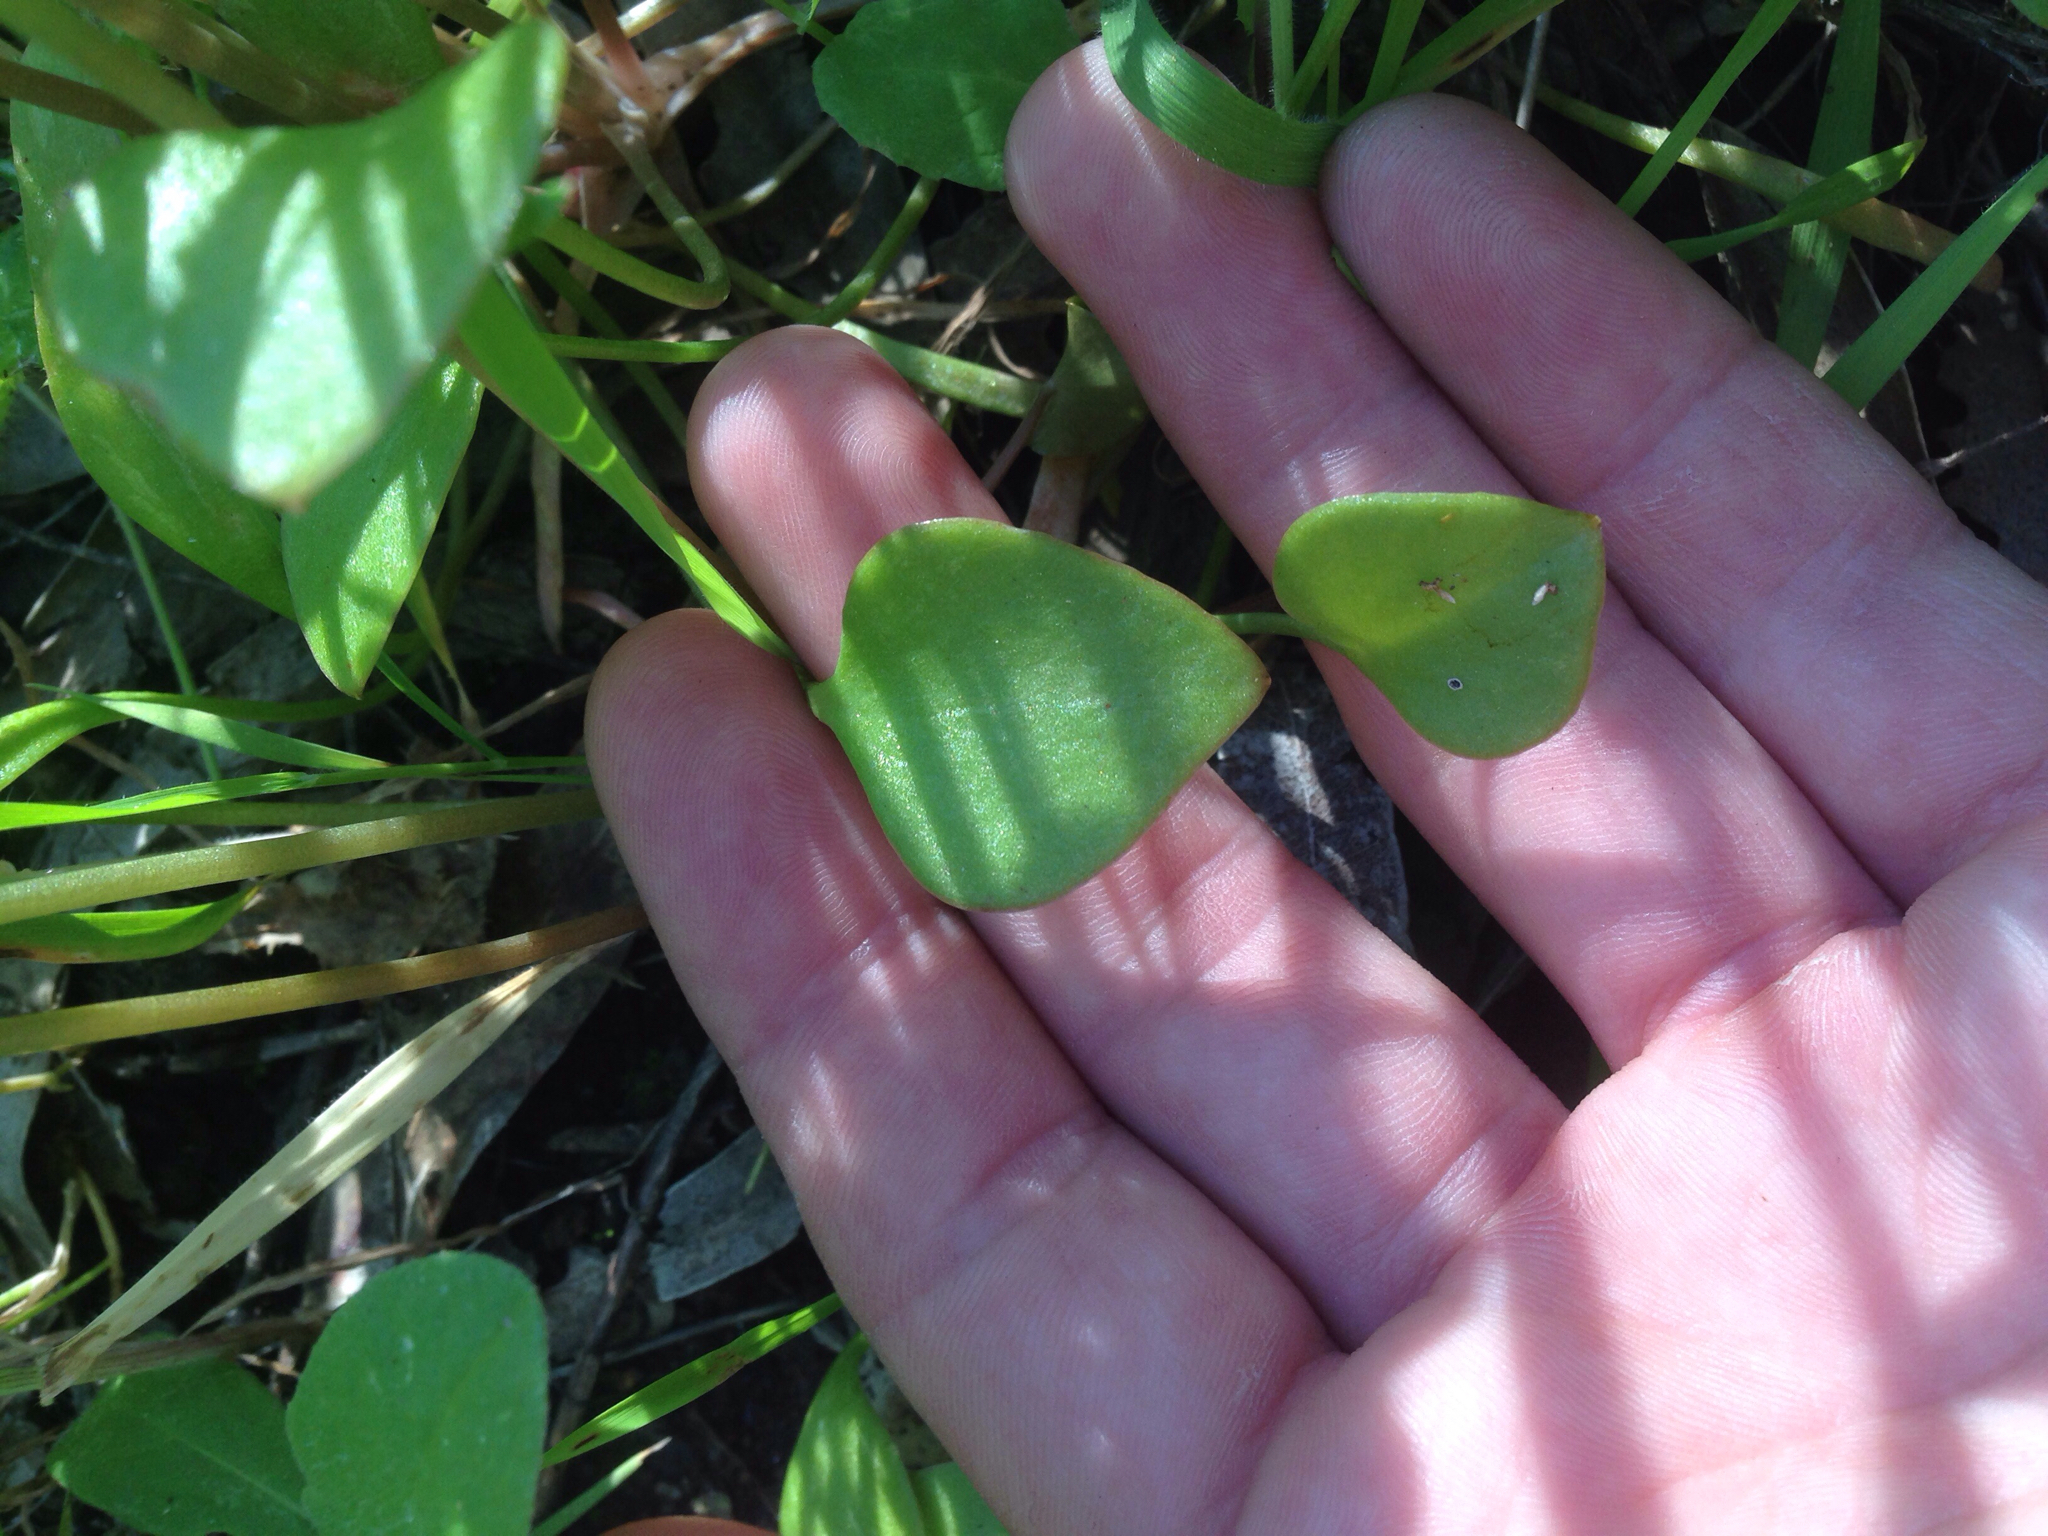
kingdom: Plantae
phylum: Tracheophyta
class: Magnoliopsida
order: Caryophyllales
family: Montiaceae
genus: Claytonia
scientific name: Claytonia perfoliata
